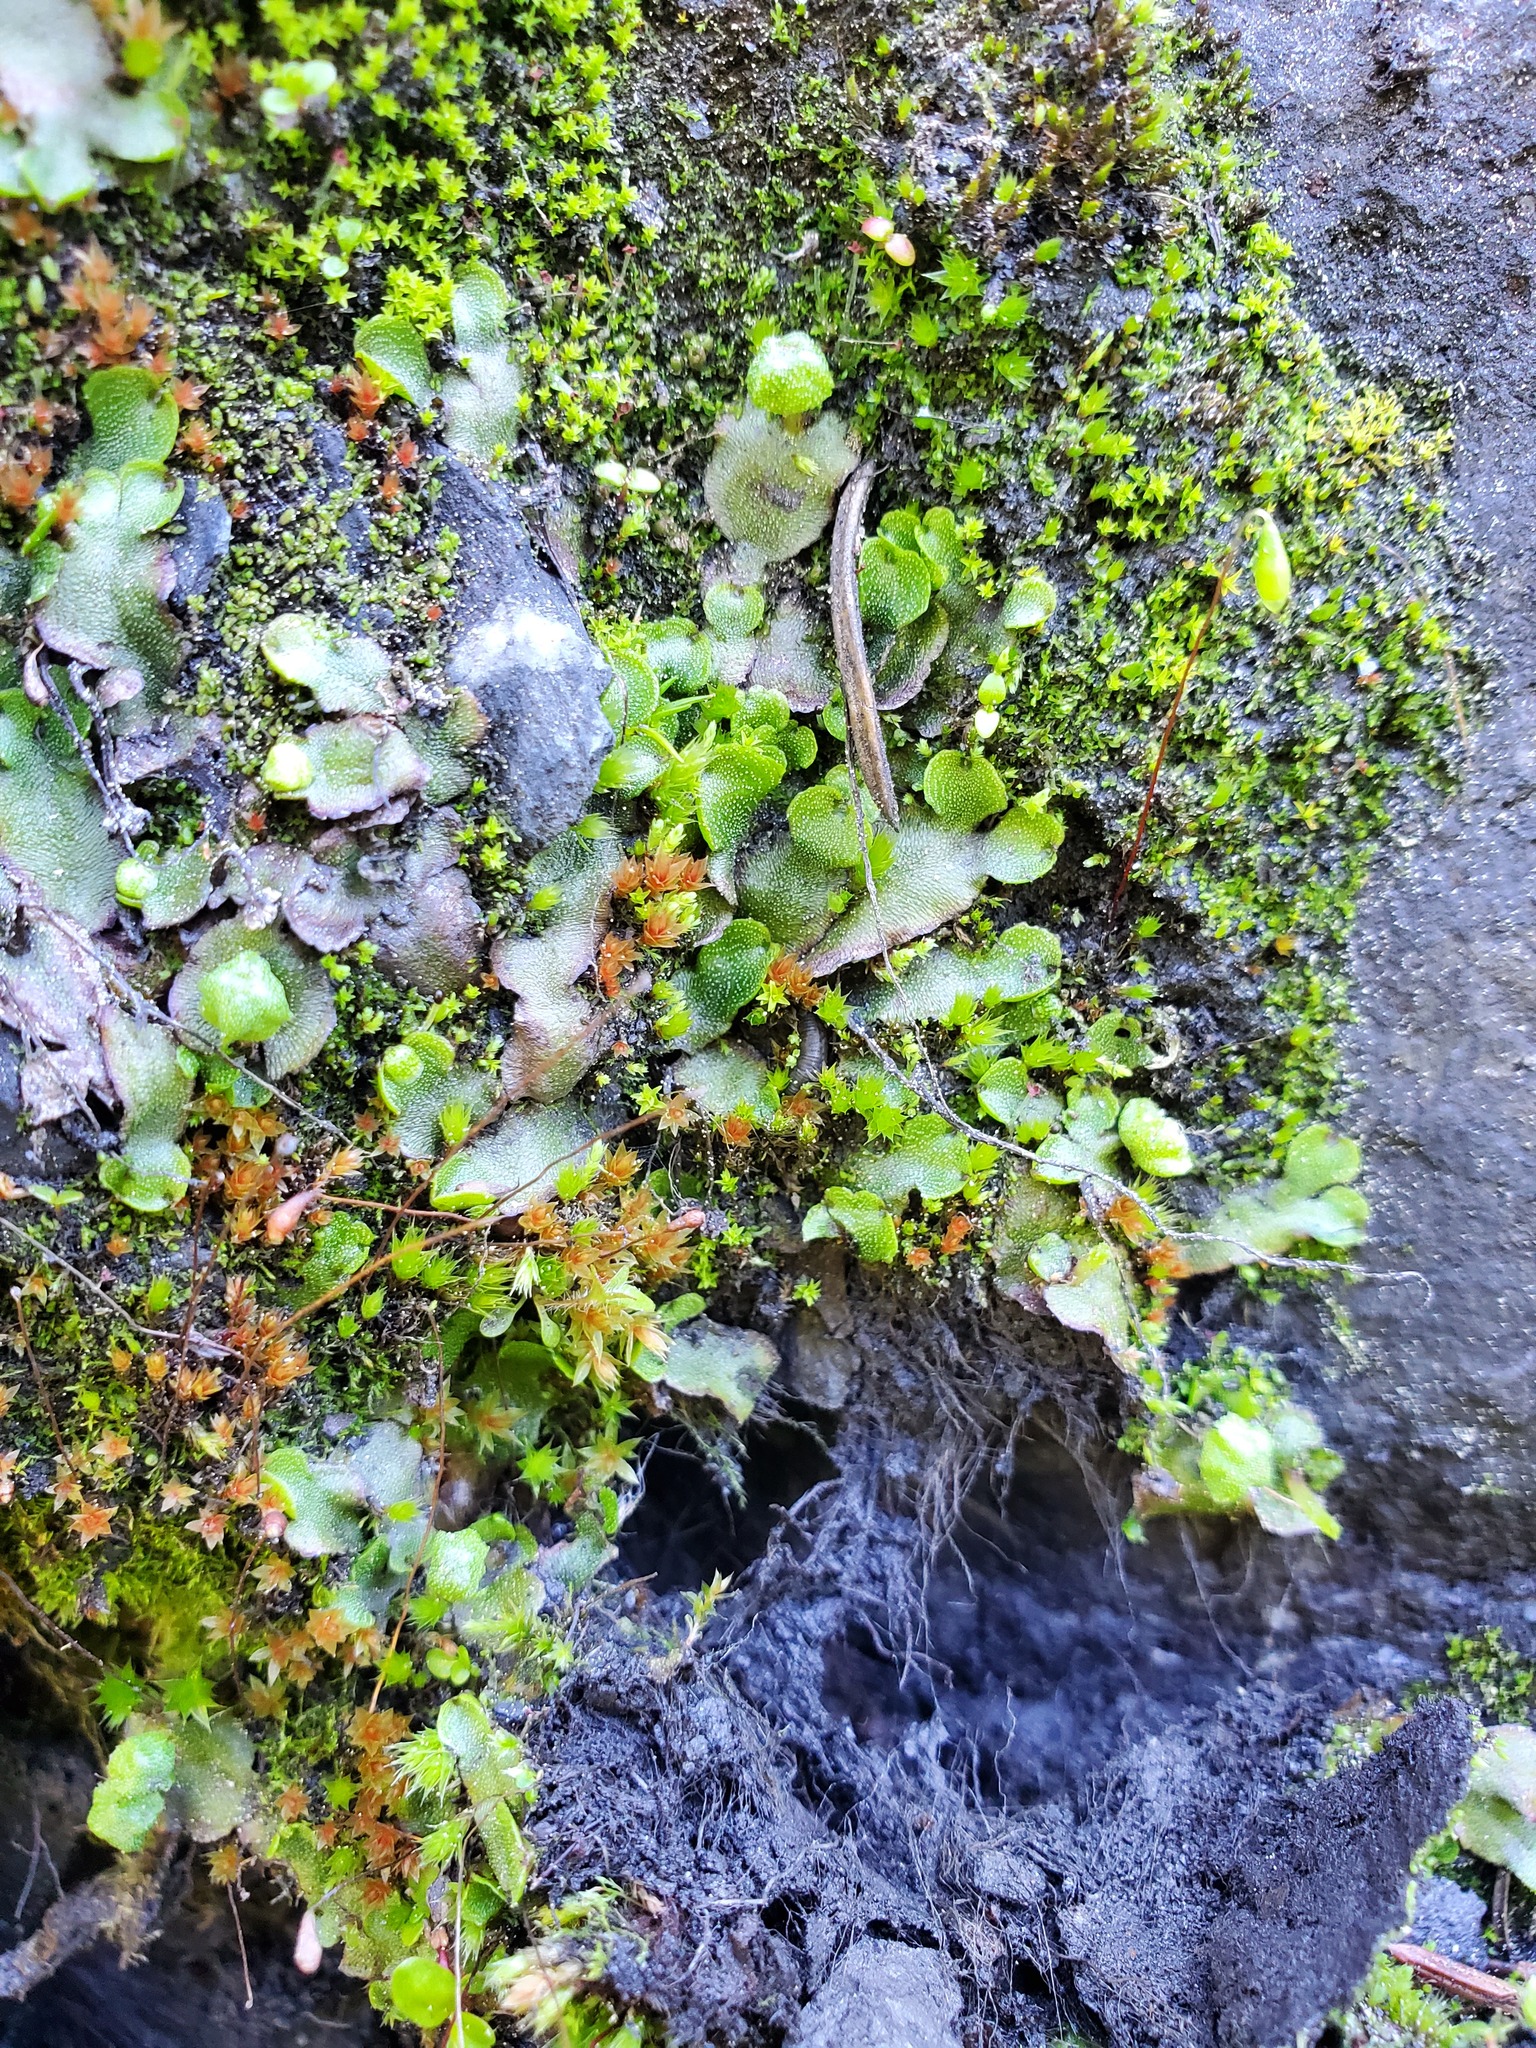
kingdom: Plantae
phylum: Marchantiophyta
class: Marchantiopsida
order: Marchantiales
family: Marchantiaceae
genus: Marchantia
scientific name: Marchantia quadrata
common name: Narrow mushroom-headed liverwort
